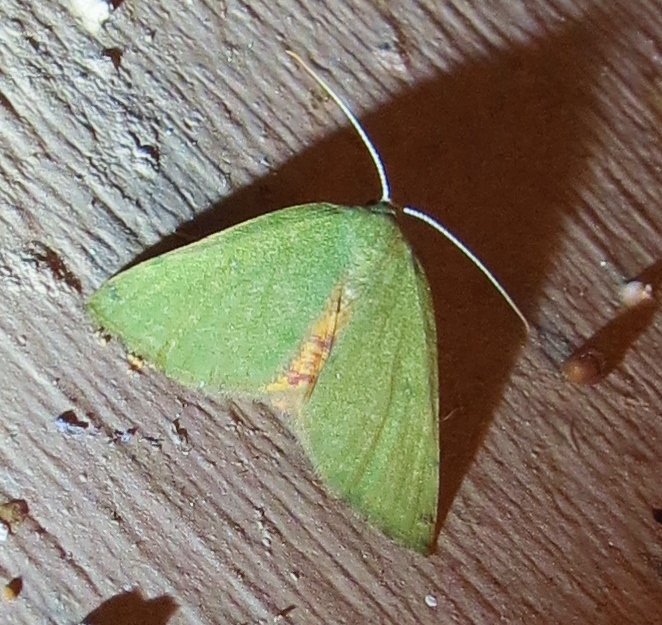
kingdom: Animalia
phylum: Arthropoda
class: Insecta
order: Lepidoptera
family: Geometridae
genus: Chloraspilates
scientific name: Chloraspilates bicoloraria
